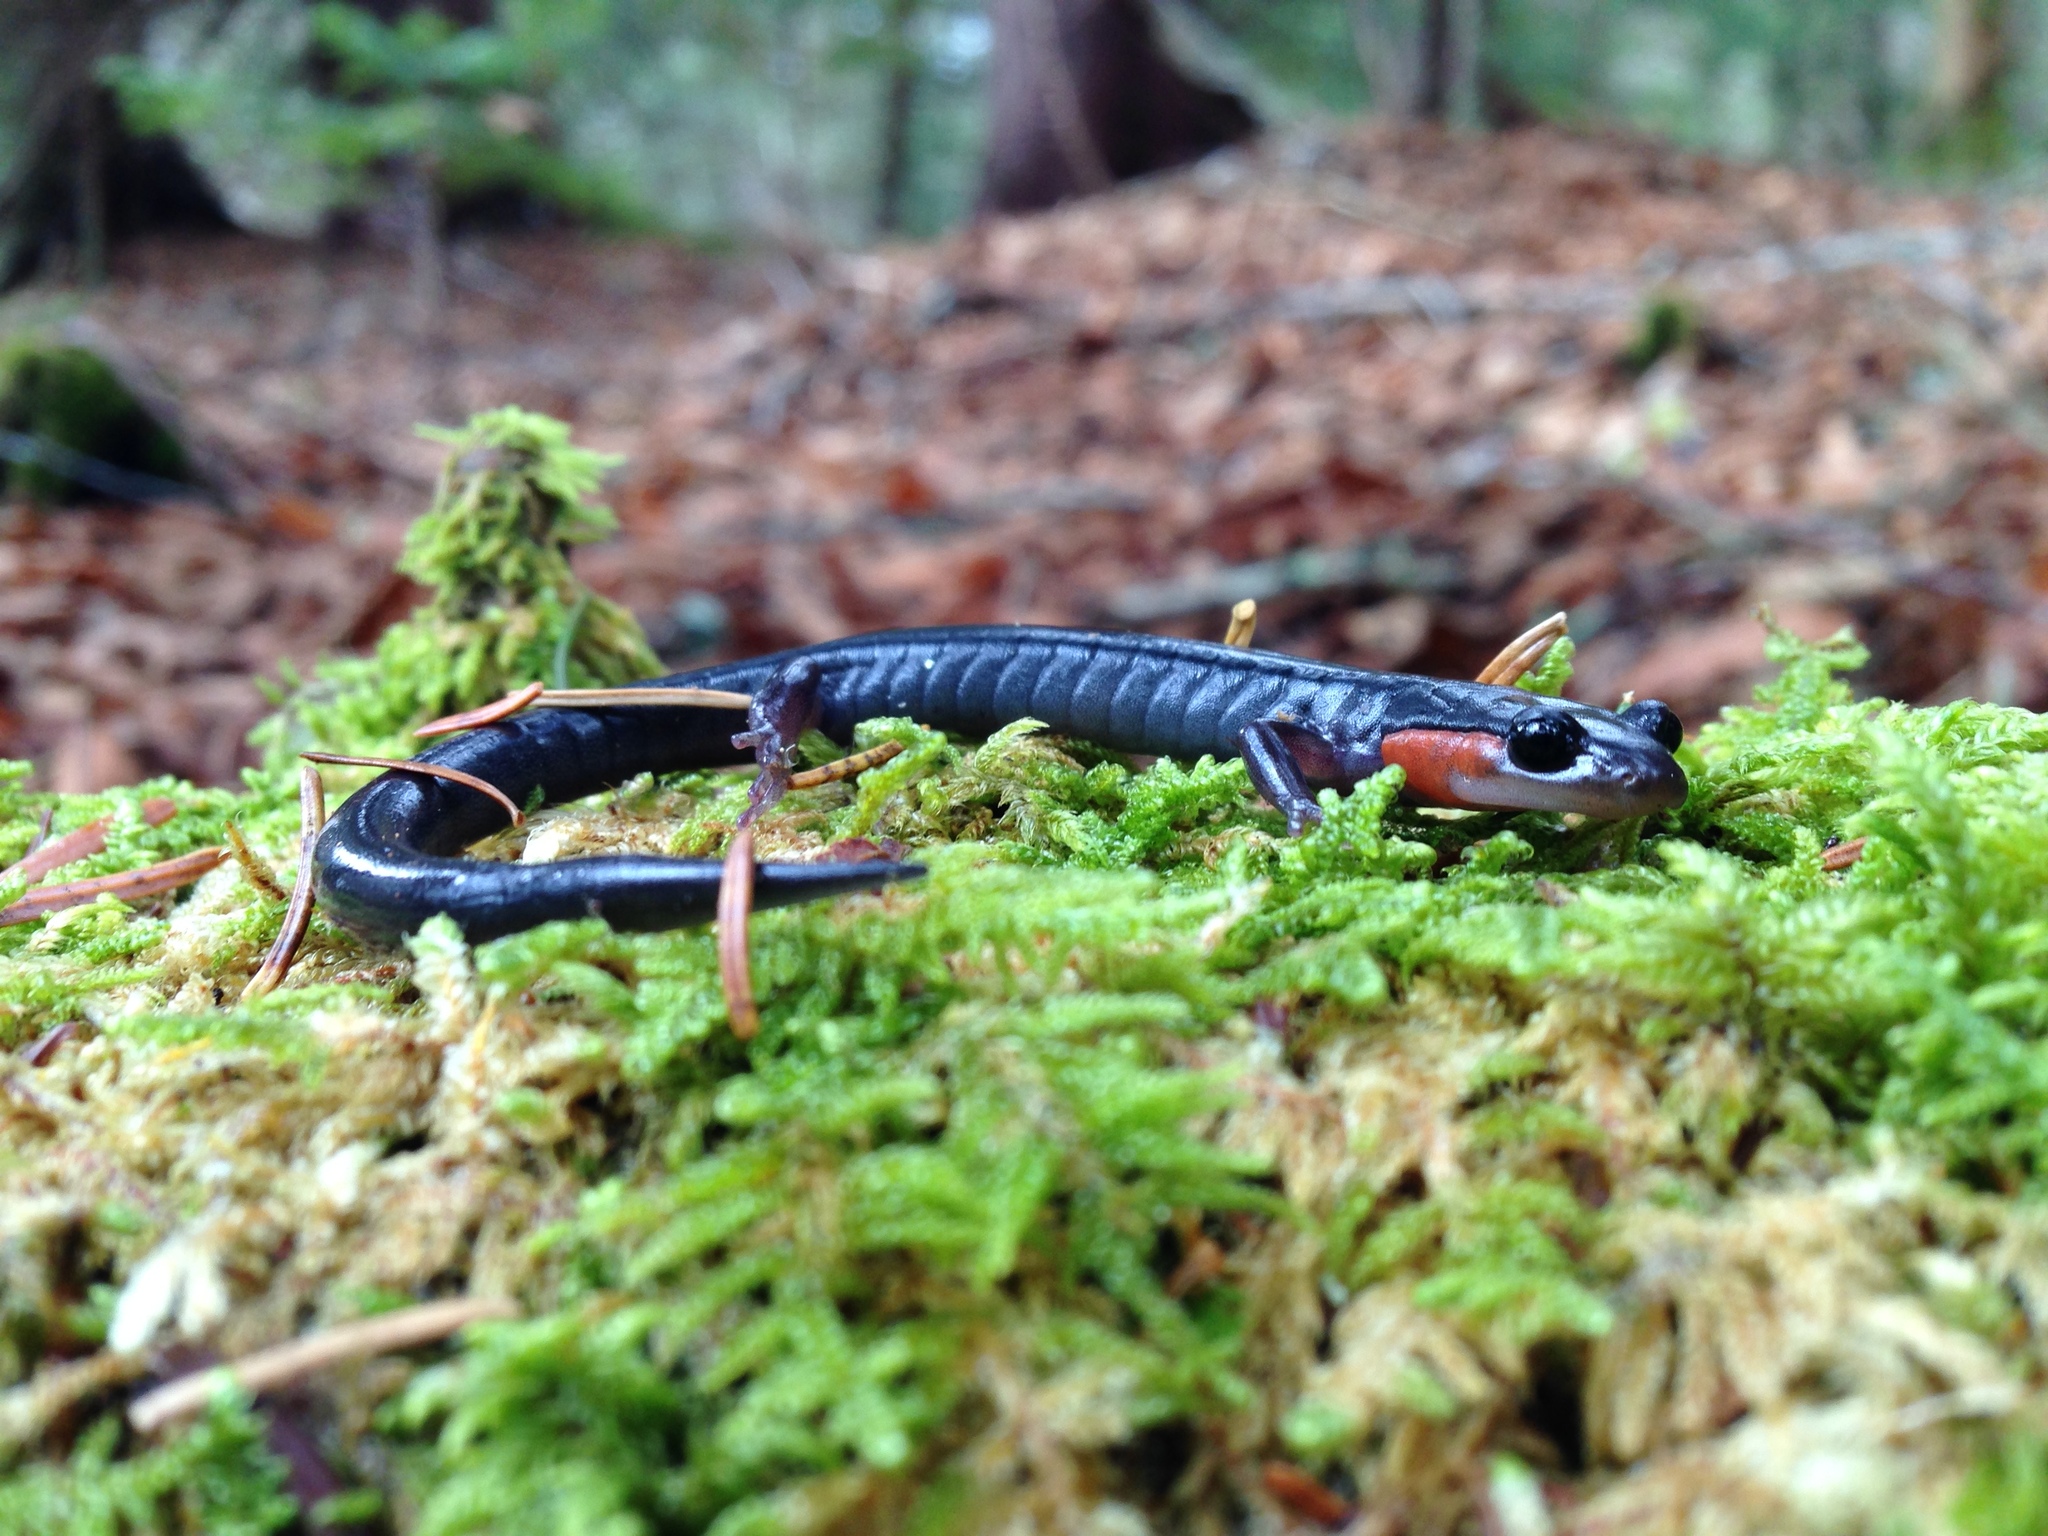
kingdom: Animalia
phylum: Chordata
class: Amphibia
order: Caudata
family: Plethodontidae
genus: Plethodon
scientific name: Plethodon jordani
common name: Red-cheeked salamander
